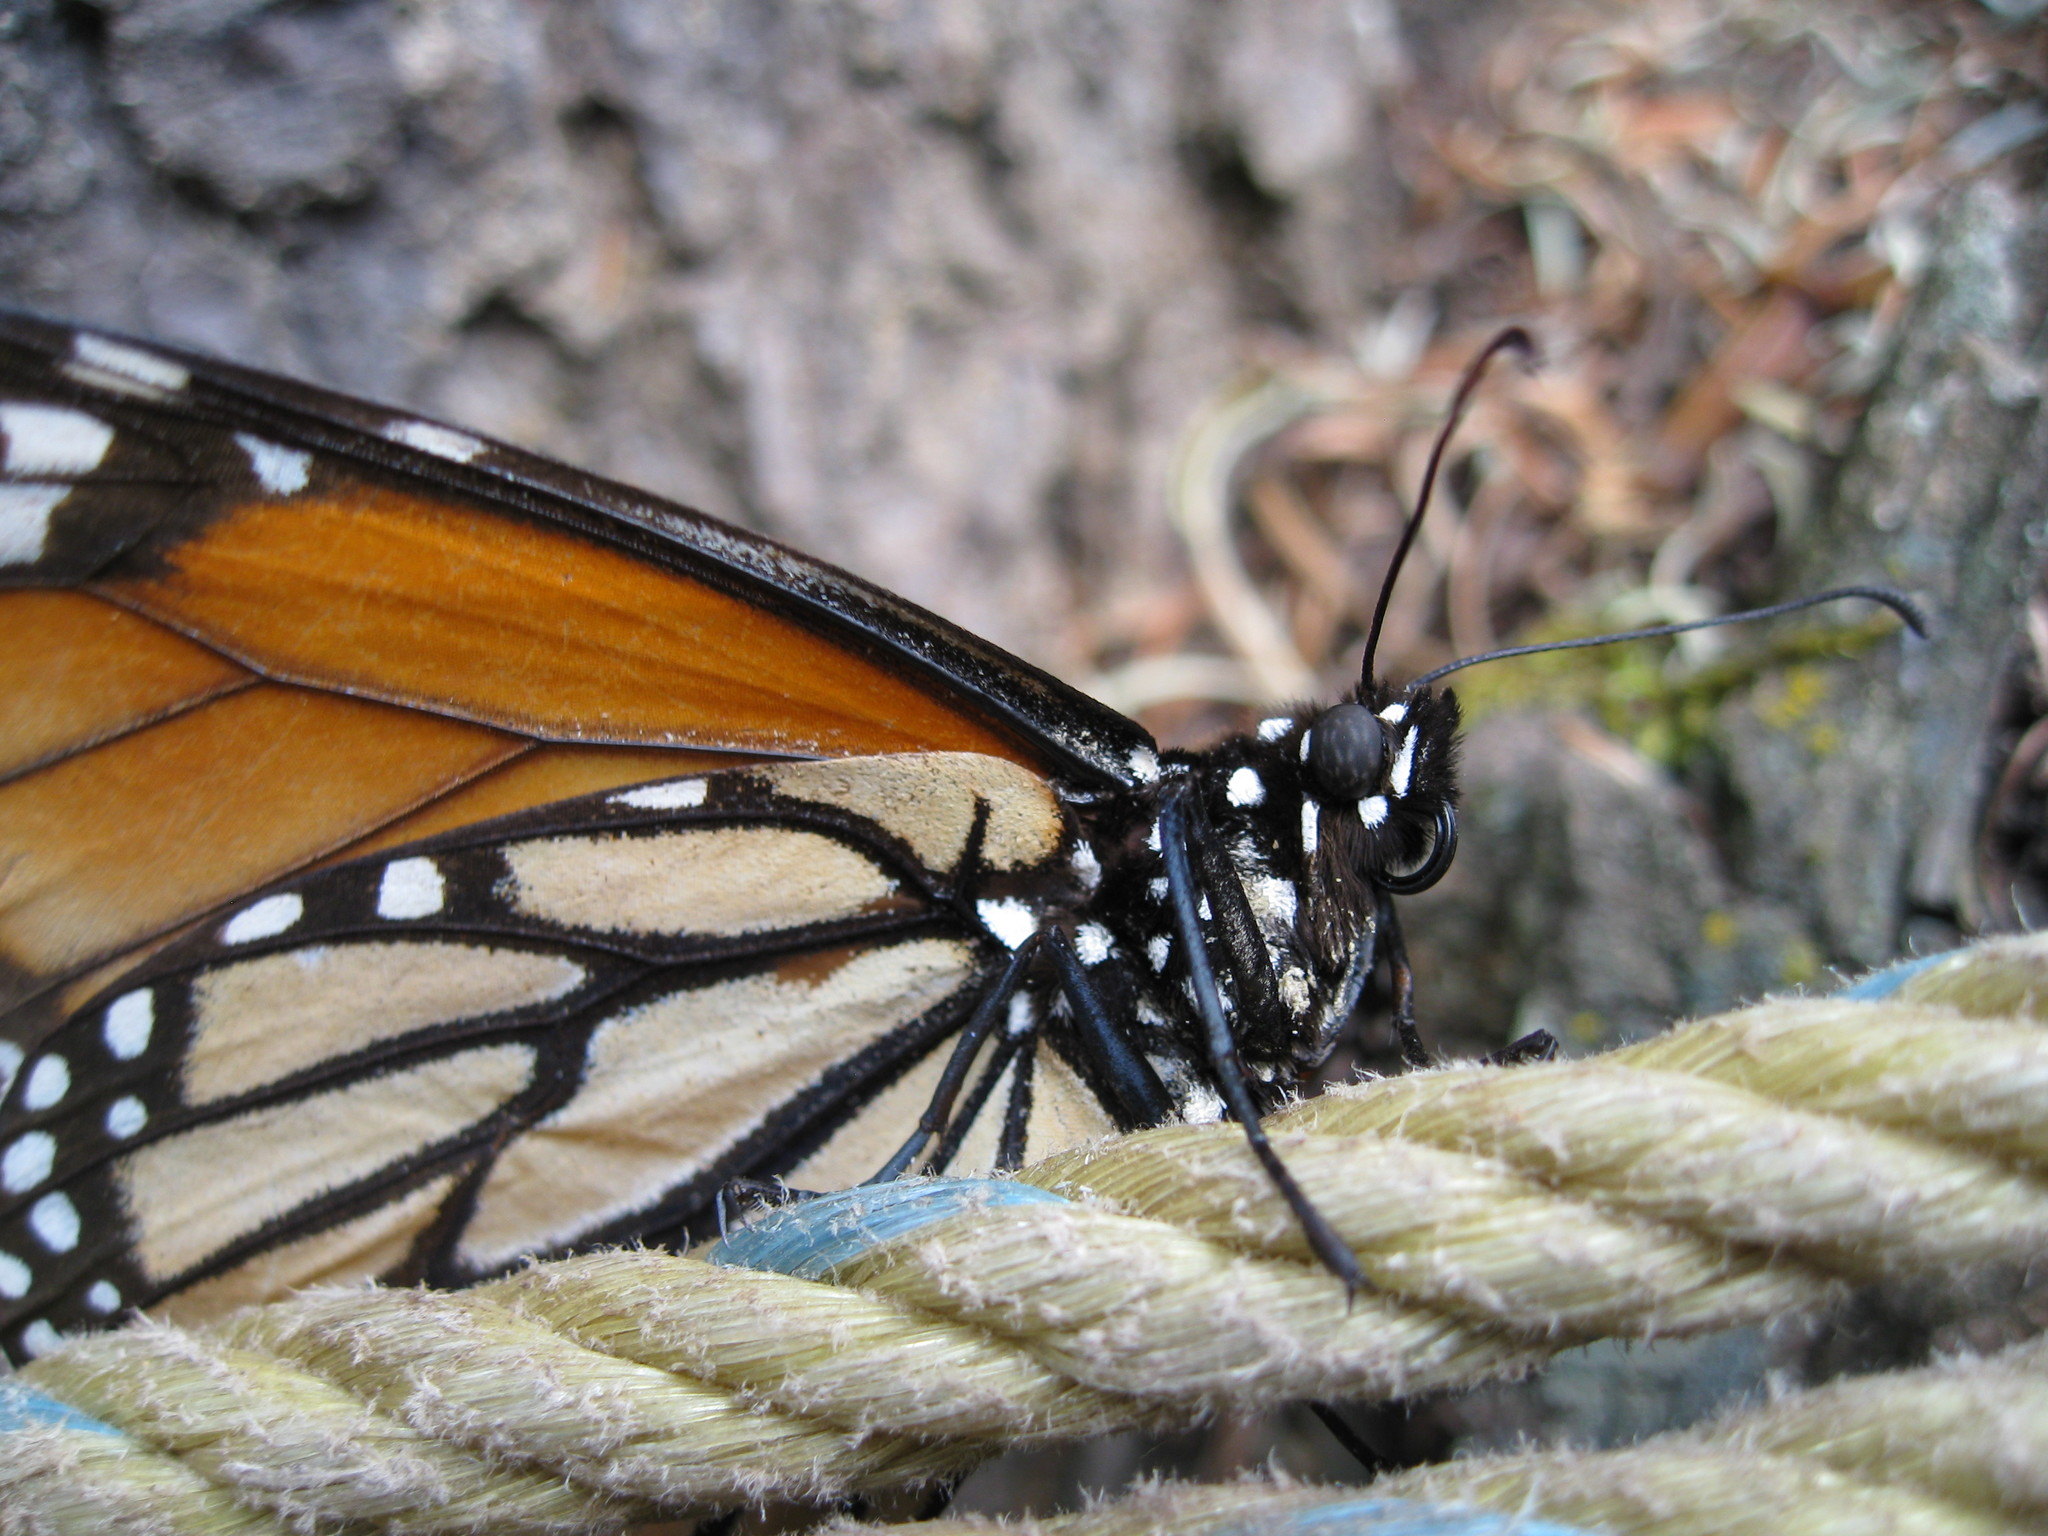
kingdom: Animalia
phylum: Arthropoda
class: Insecta
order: Lepidoptera
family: Nymphalidae
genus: Danaus
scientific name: Danaus plexippus
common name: Monarch
